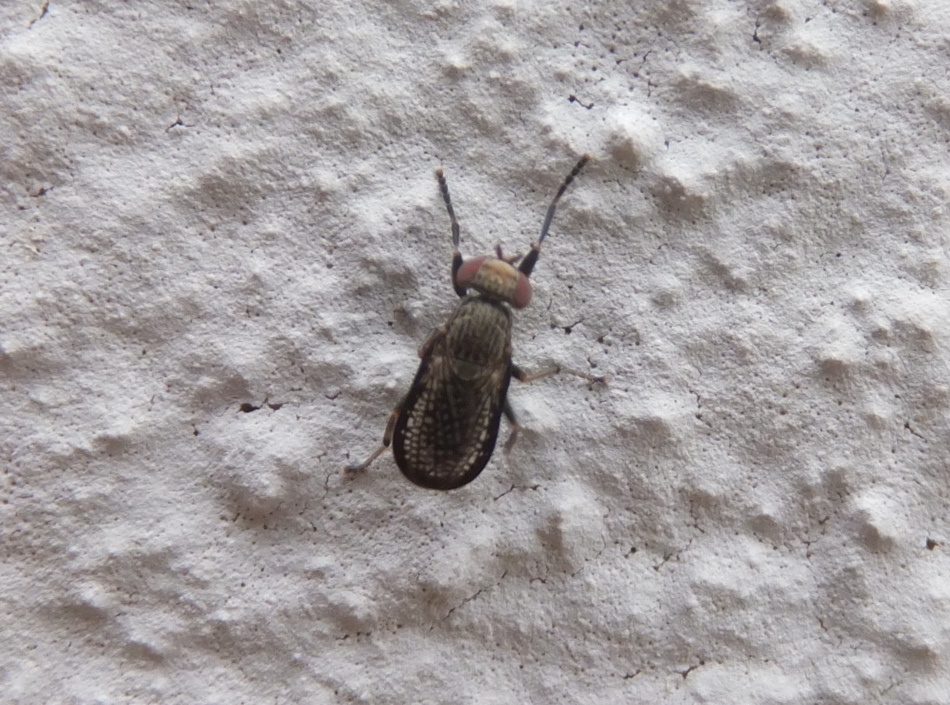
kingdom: Animalia
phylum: Arthropoda
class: Insecta
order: Diptera
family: Sciomyzidae
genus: Pherbellia
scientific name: Pherbellia limbata
